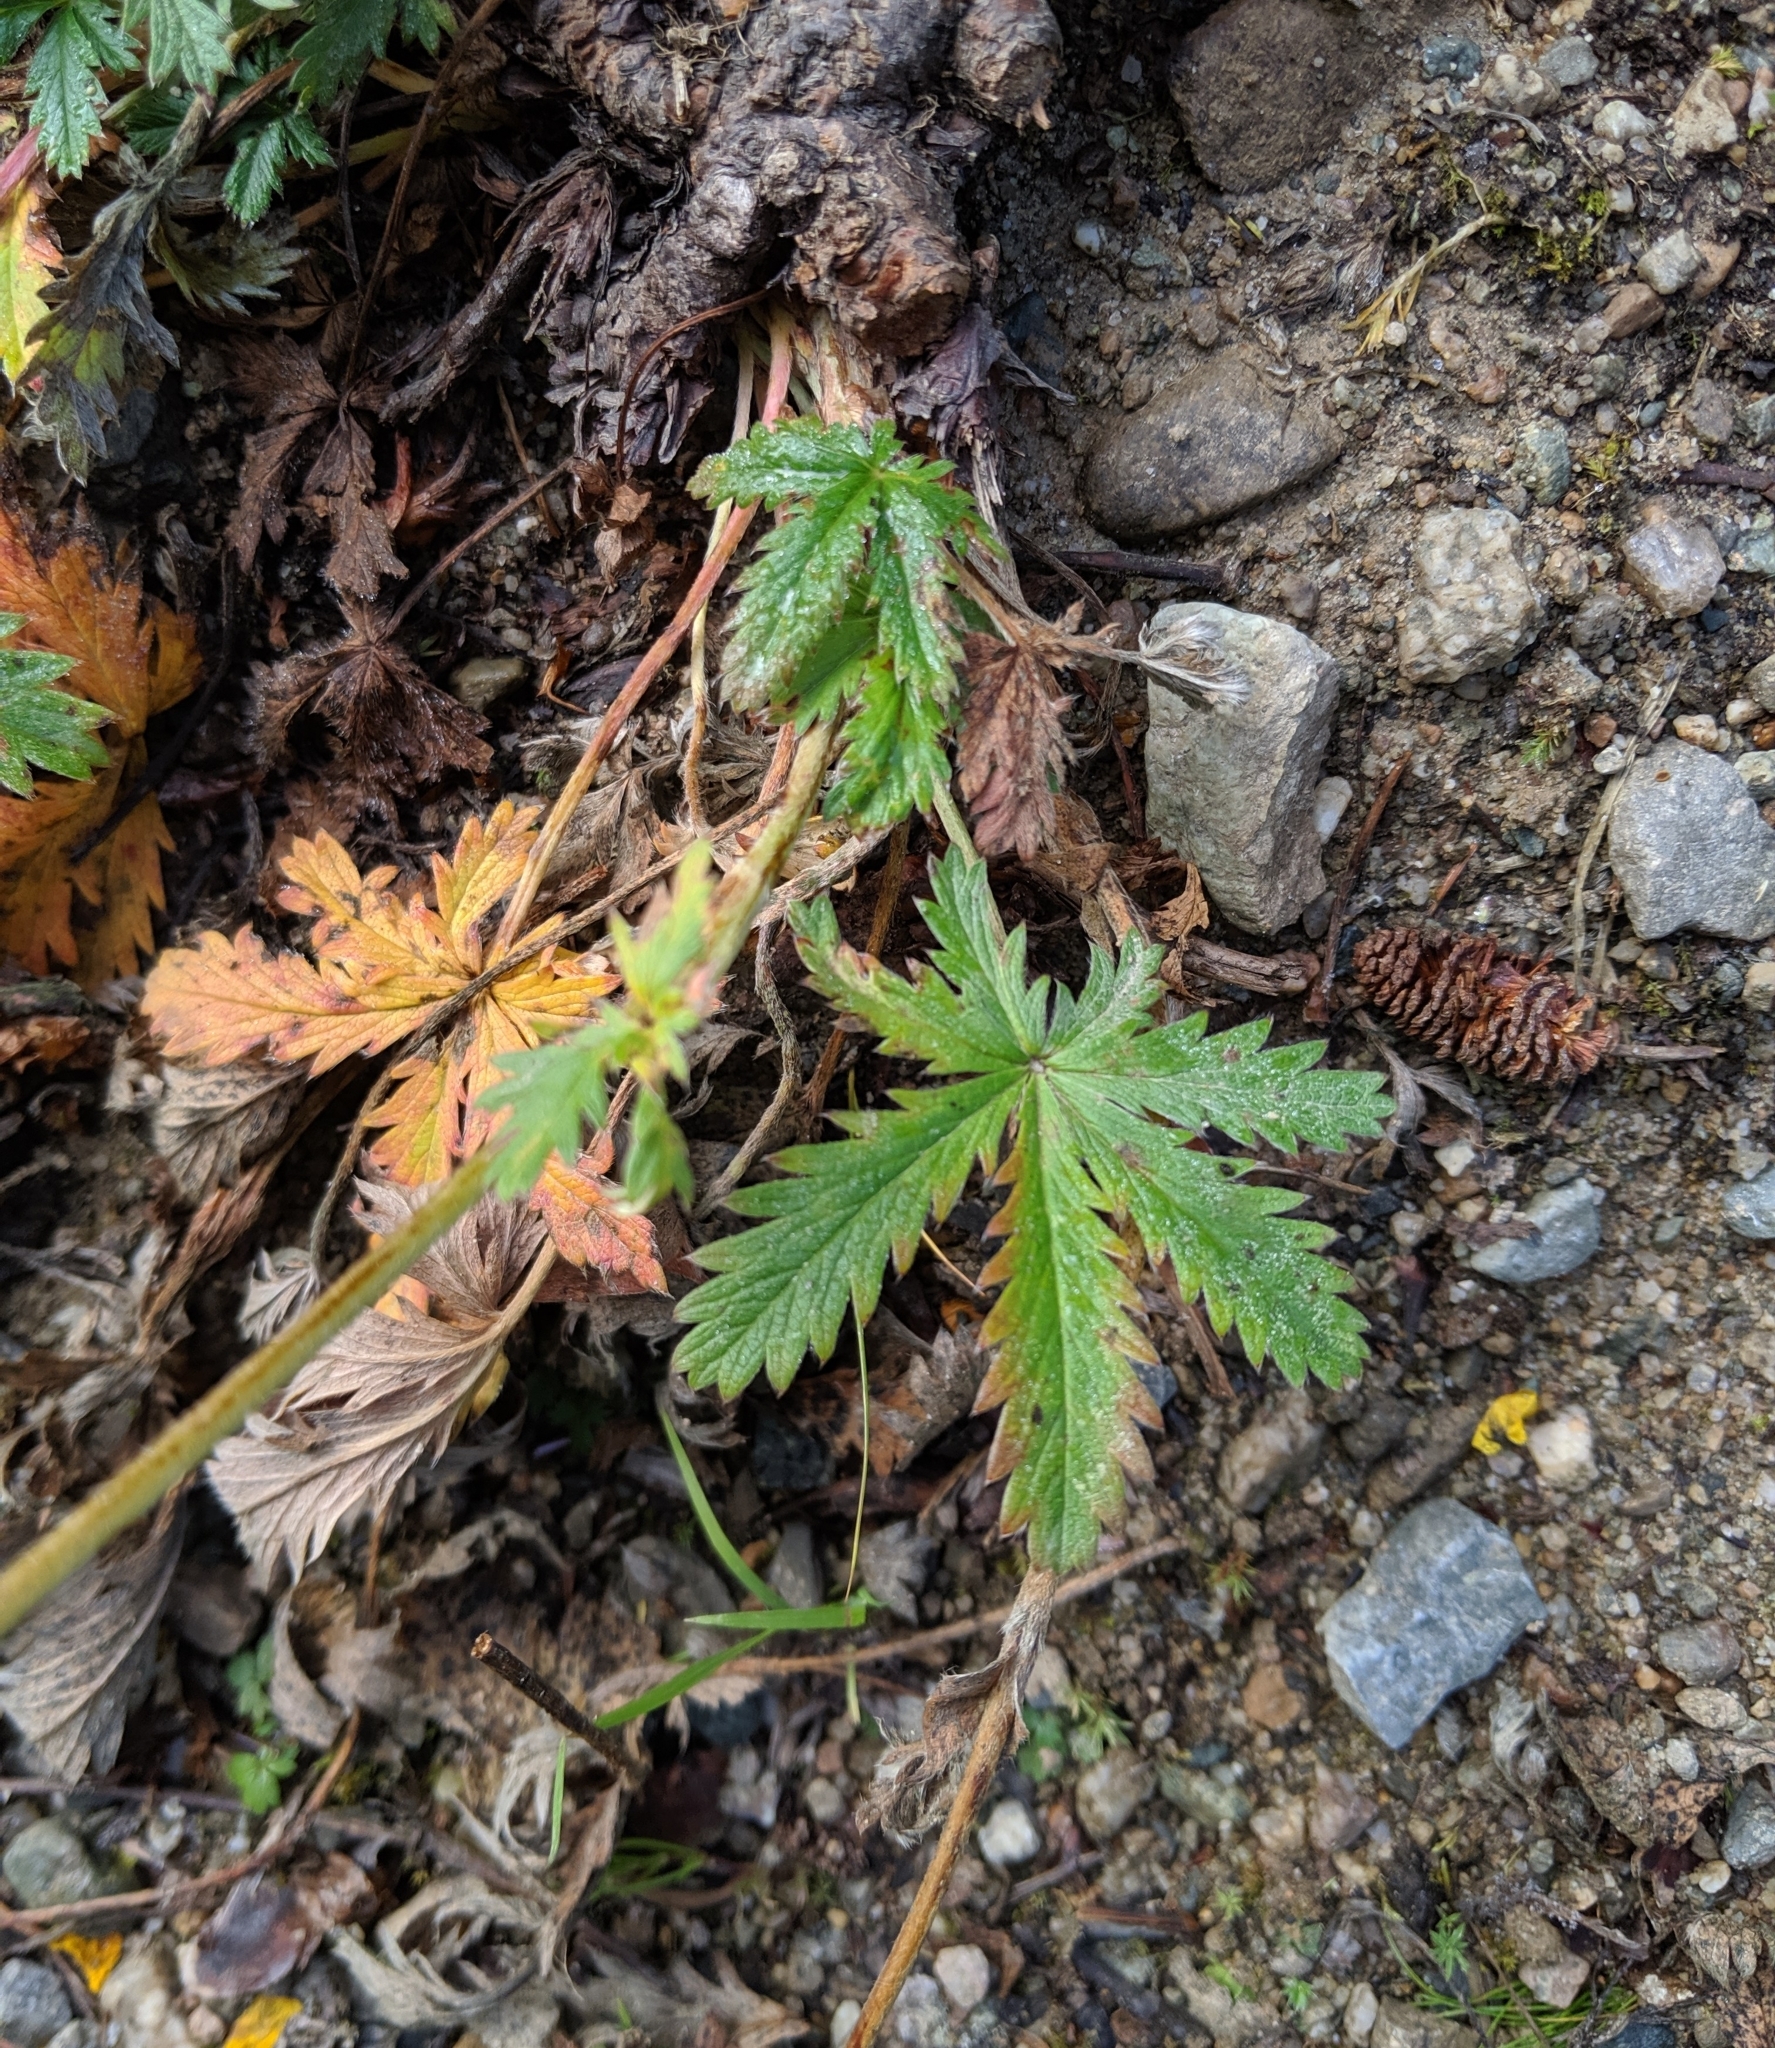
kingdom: Plantae
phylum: Tracheophyta
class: Magnoliopsida
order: Rosales
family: Rosaceae
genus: Potentilla
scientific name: Potentilla recta
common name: Sulphur cinquefoil
